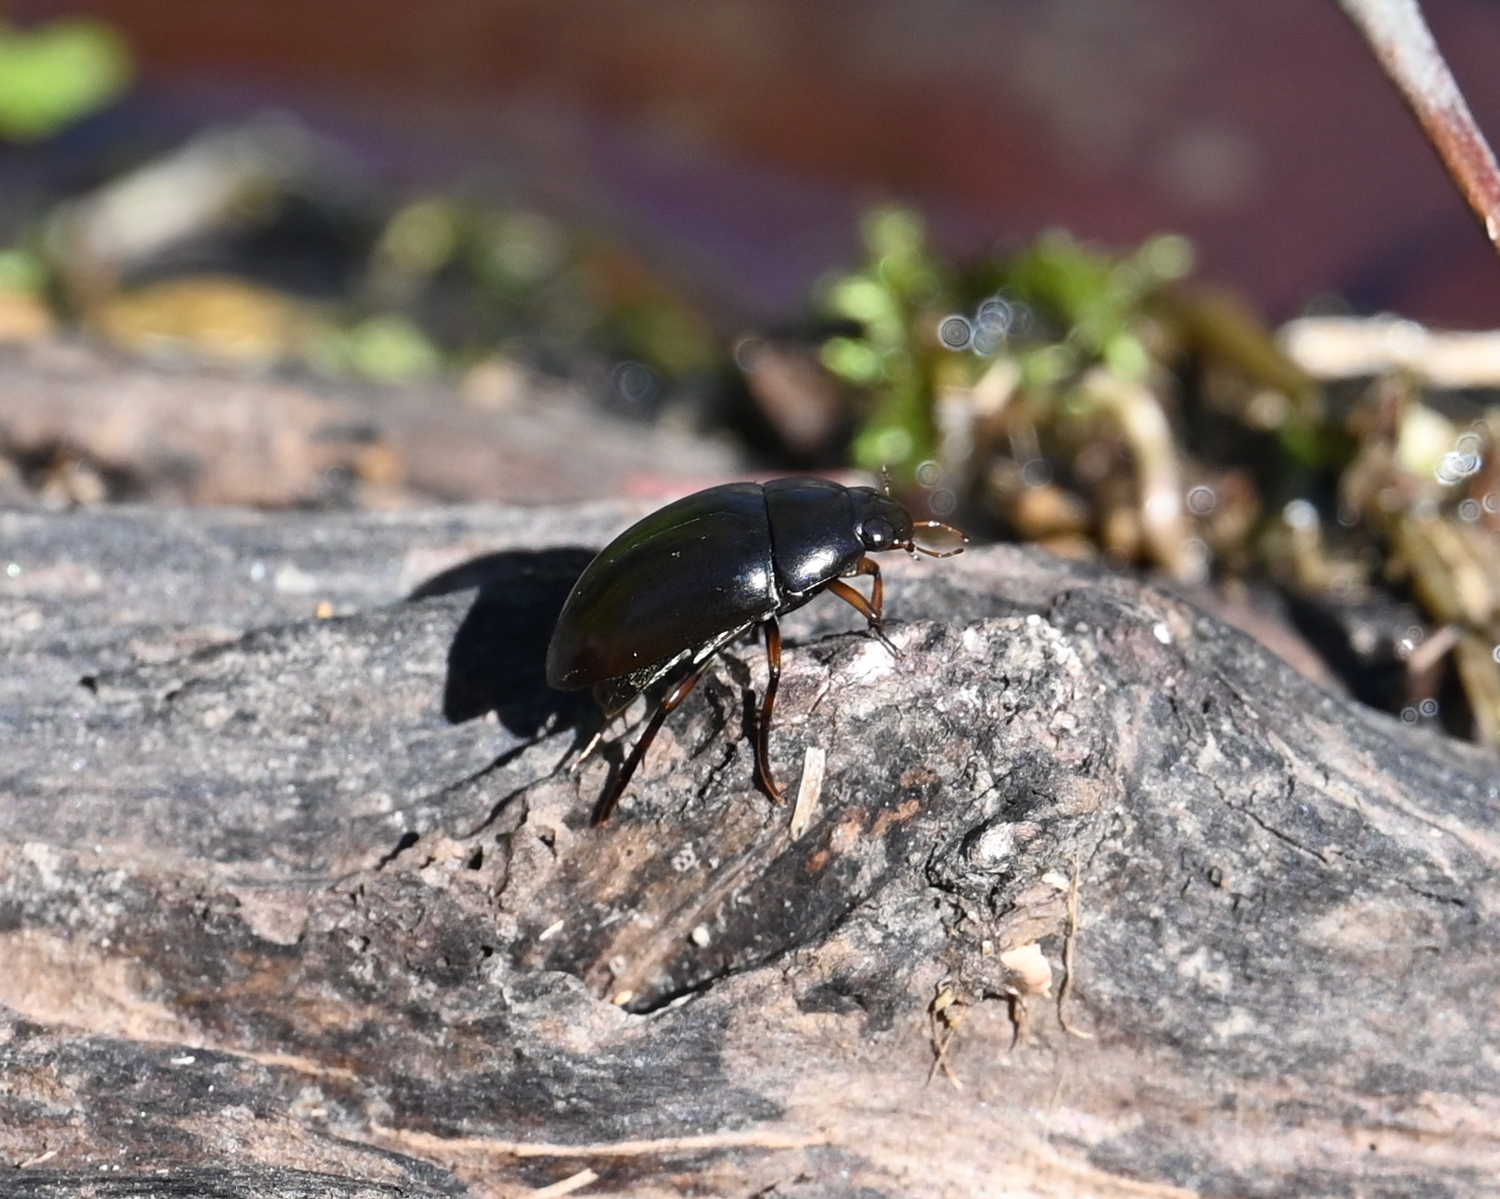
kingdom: Animalia
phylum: Arthropoda
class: Insecta
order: Coleoptera
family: Hydrophilidae
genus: Tropisternus
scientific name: Tropisternus
